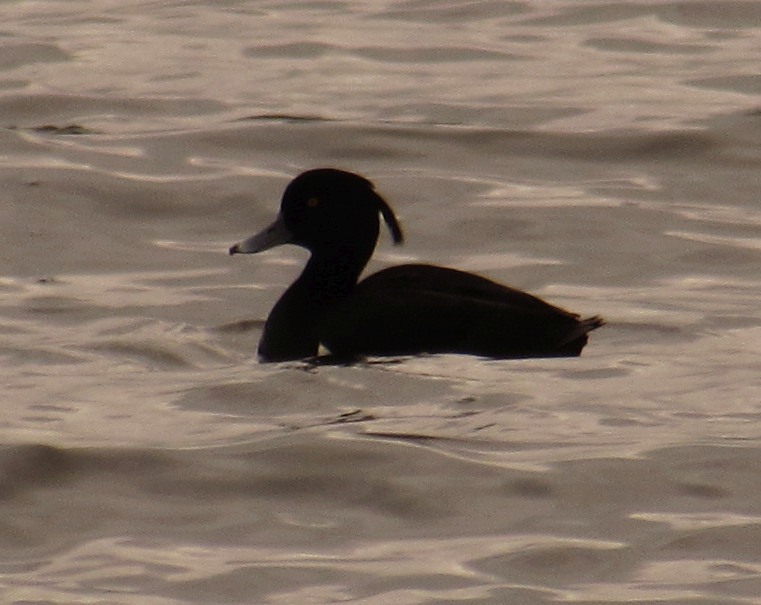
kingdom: Animalia
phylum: Chordata
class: Aves
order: Anseriformes
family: Anatidae
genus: Aythya
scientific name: Aythya fuligula
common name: Tufted duck
